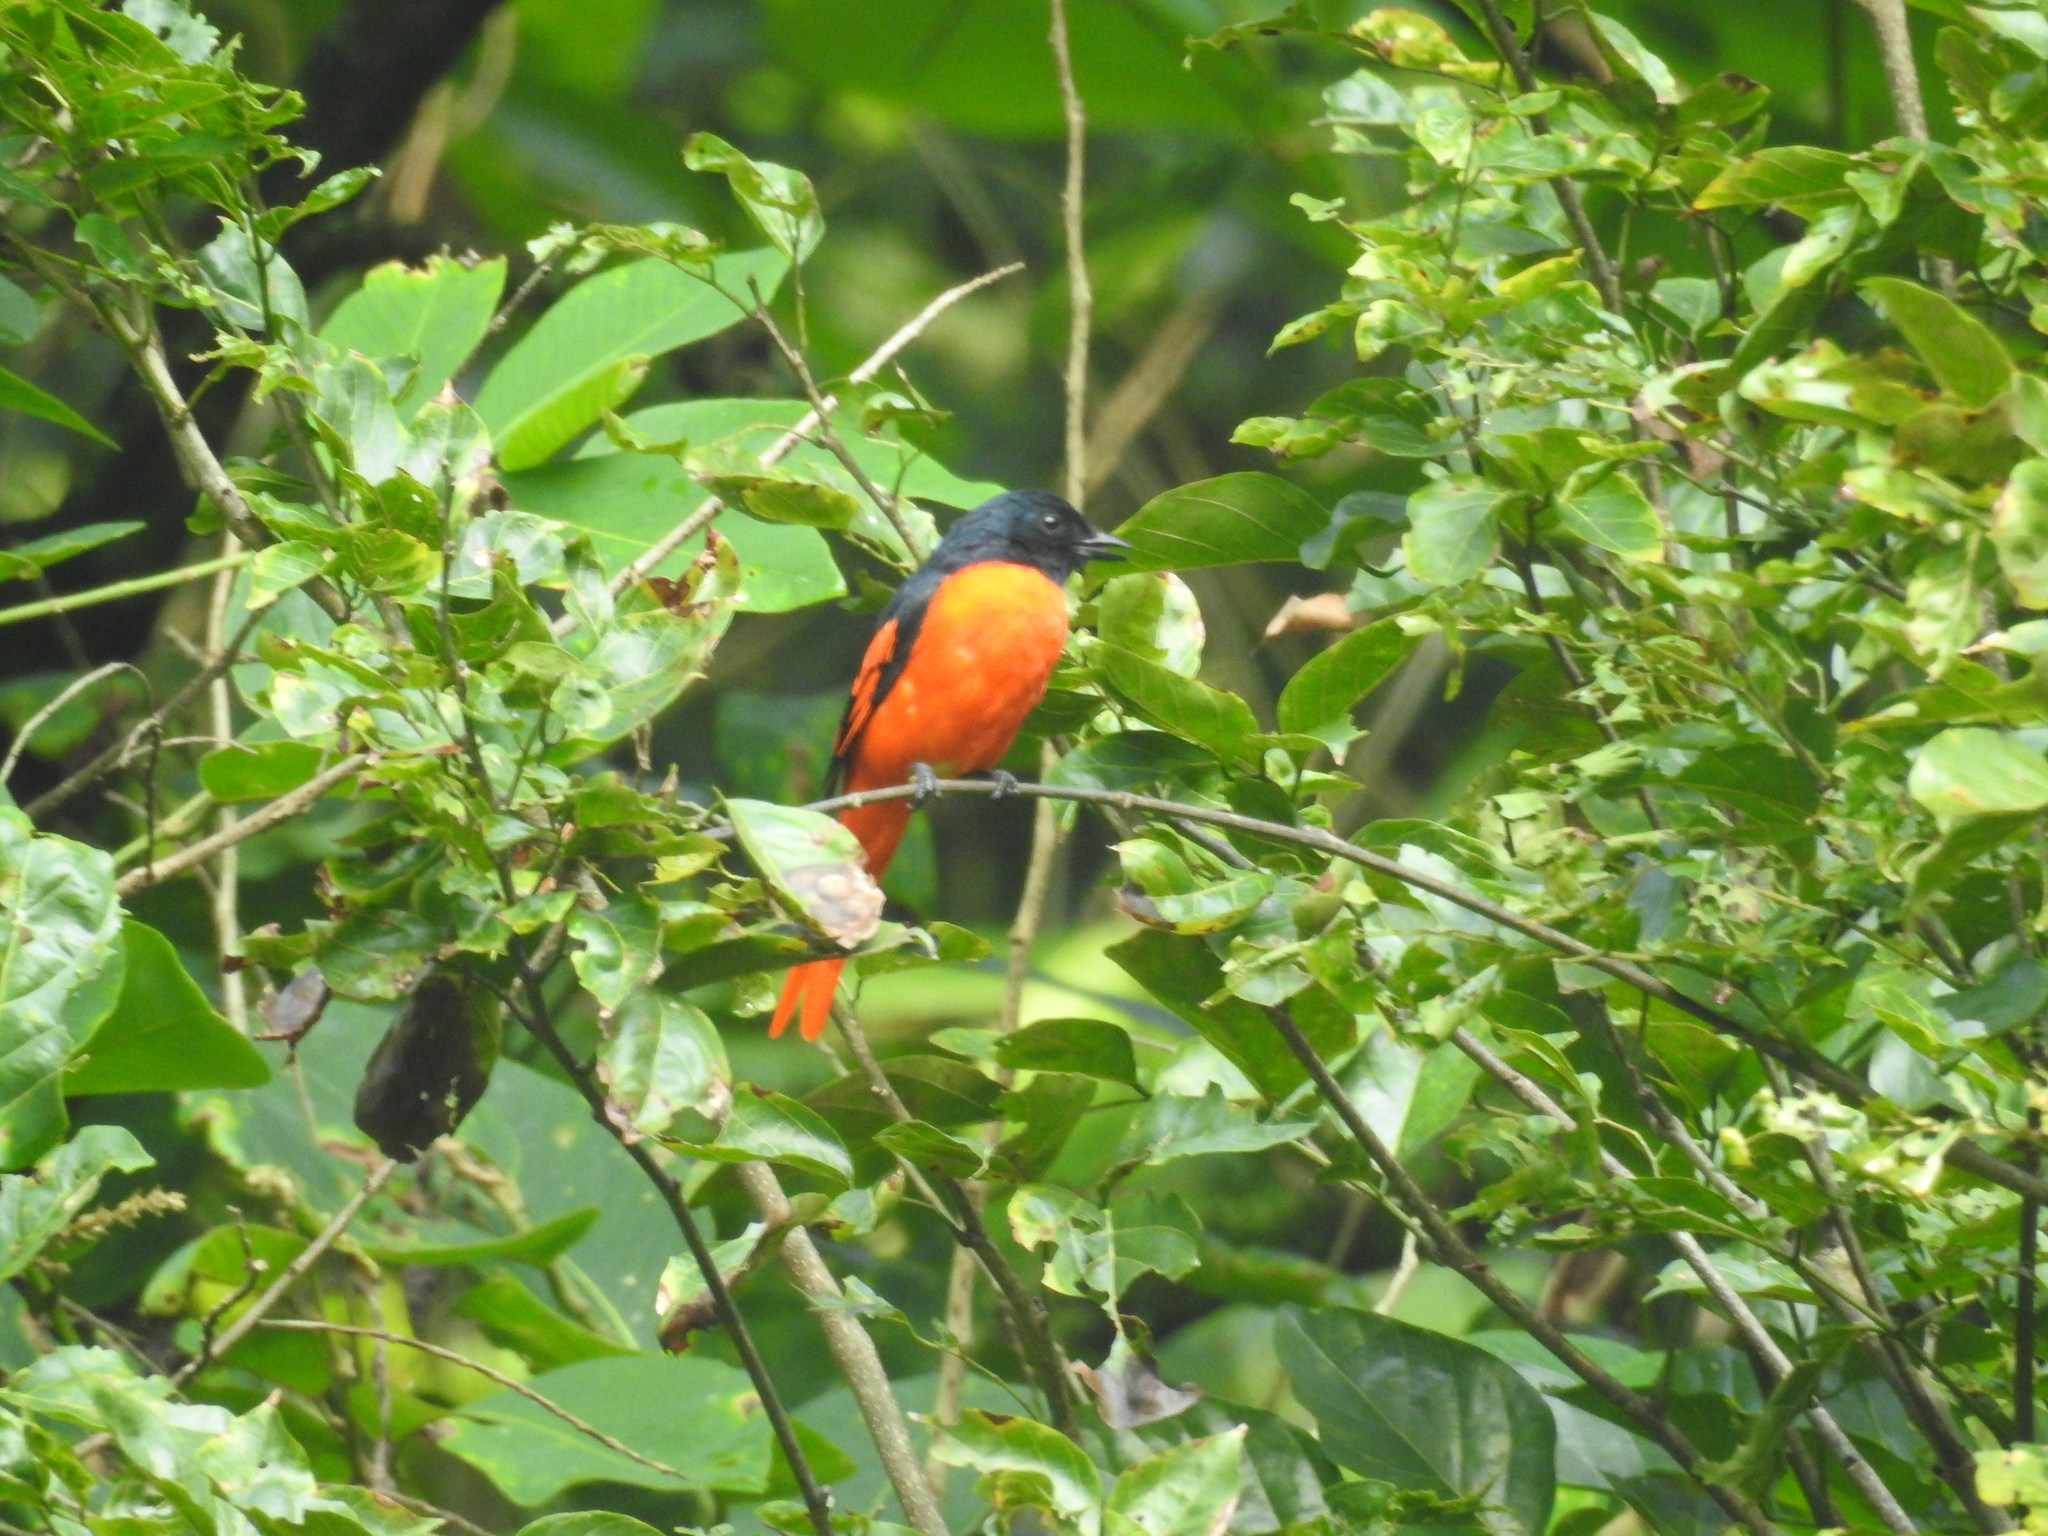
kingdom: Animalia
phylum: Chordata
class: Aves
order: Passeriformes
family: Campephagidae
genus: Pericrocotus
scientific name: Pericrocotus speciosus
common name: Scarlet minivet
